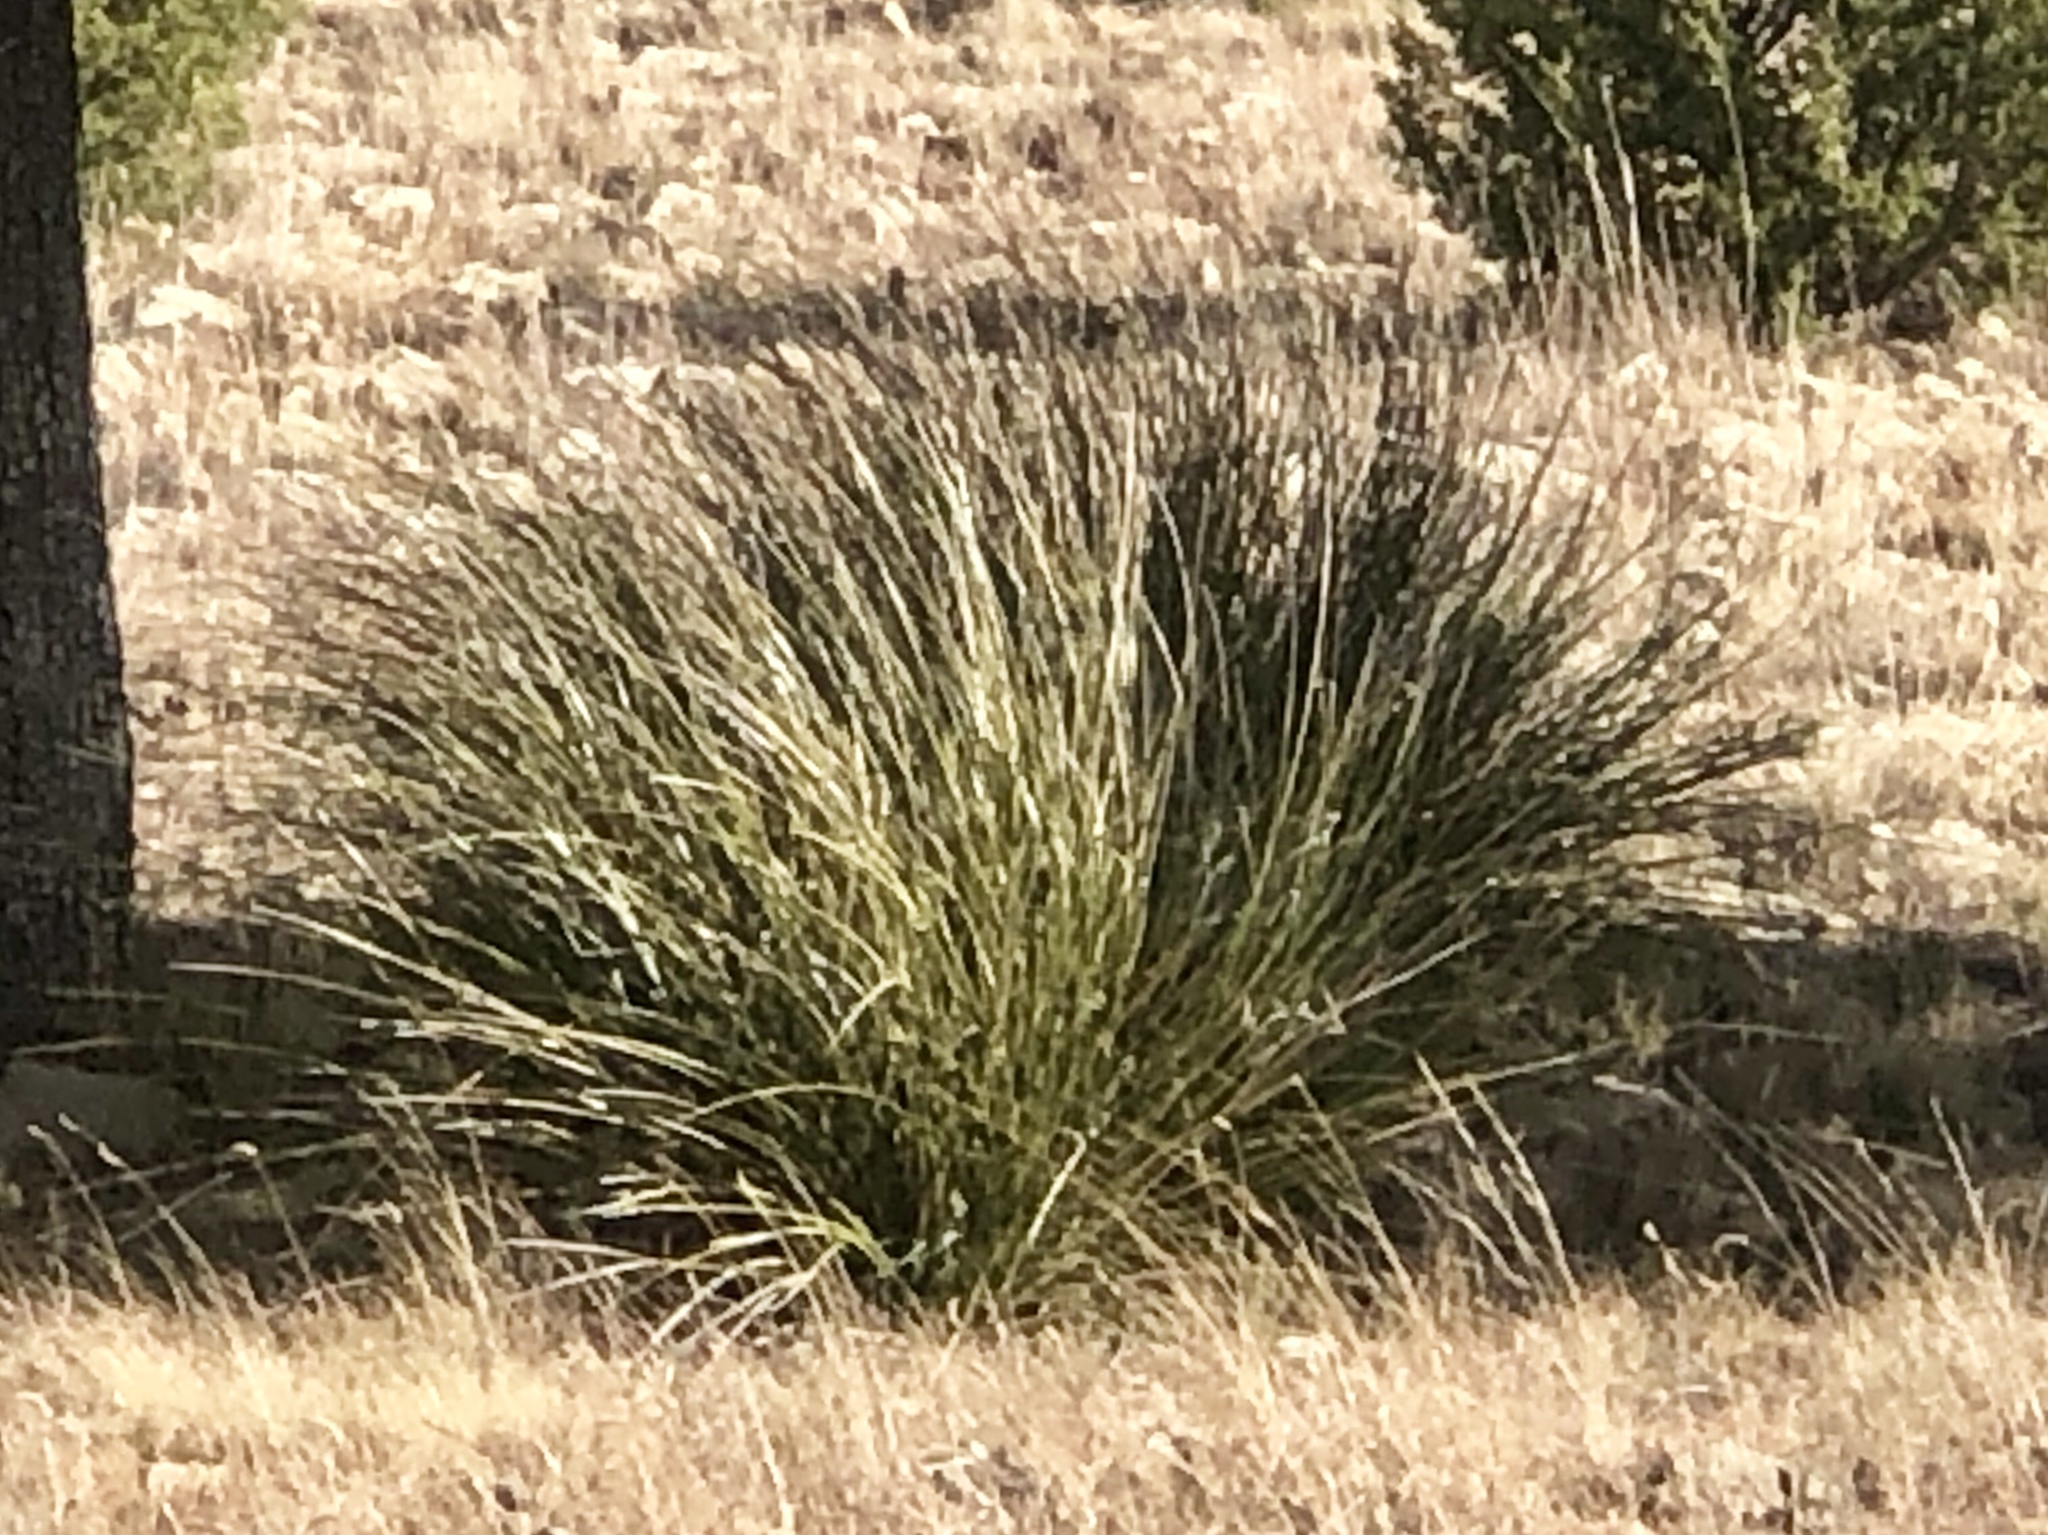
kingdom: Plantae
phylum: Tracheophyta
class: Liliopsida
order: Asparagales
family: Asparagaceae
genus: Nolina
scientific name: Nolina microcarpa
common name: Bear-grass
